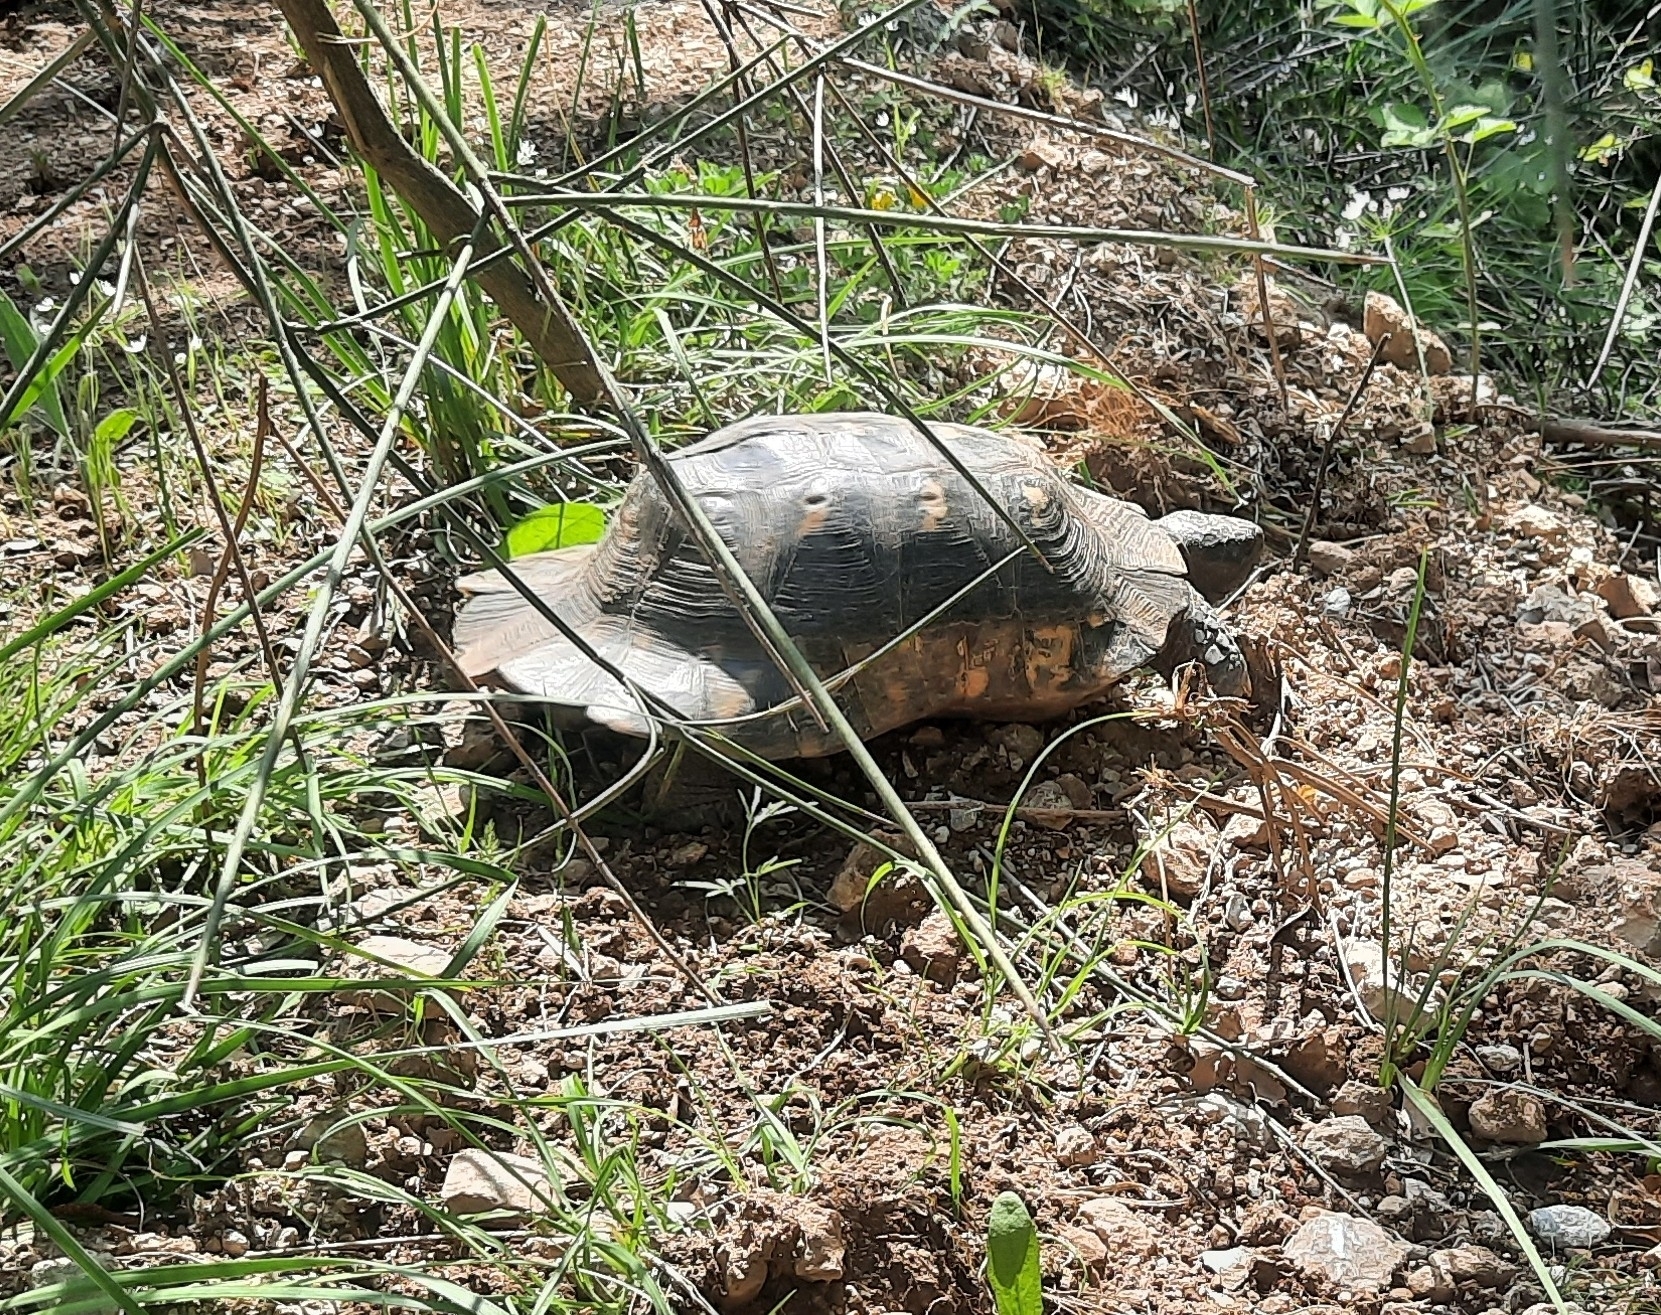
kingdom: Animalia
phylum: Chordata
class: Testudines
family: Testudinidae
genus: Testudo
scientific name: Testudo marginata
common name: Marginated tortoise
